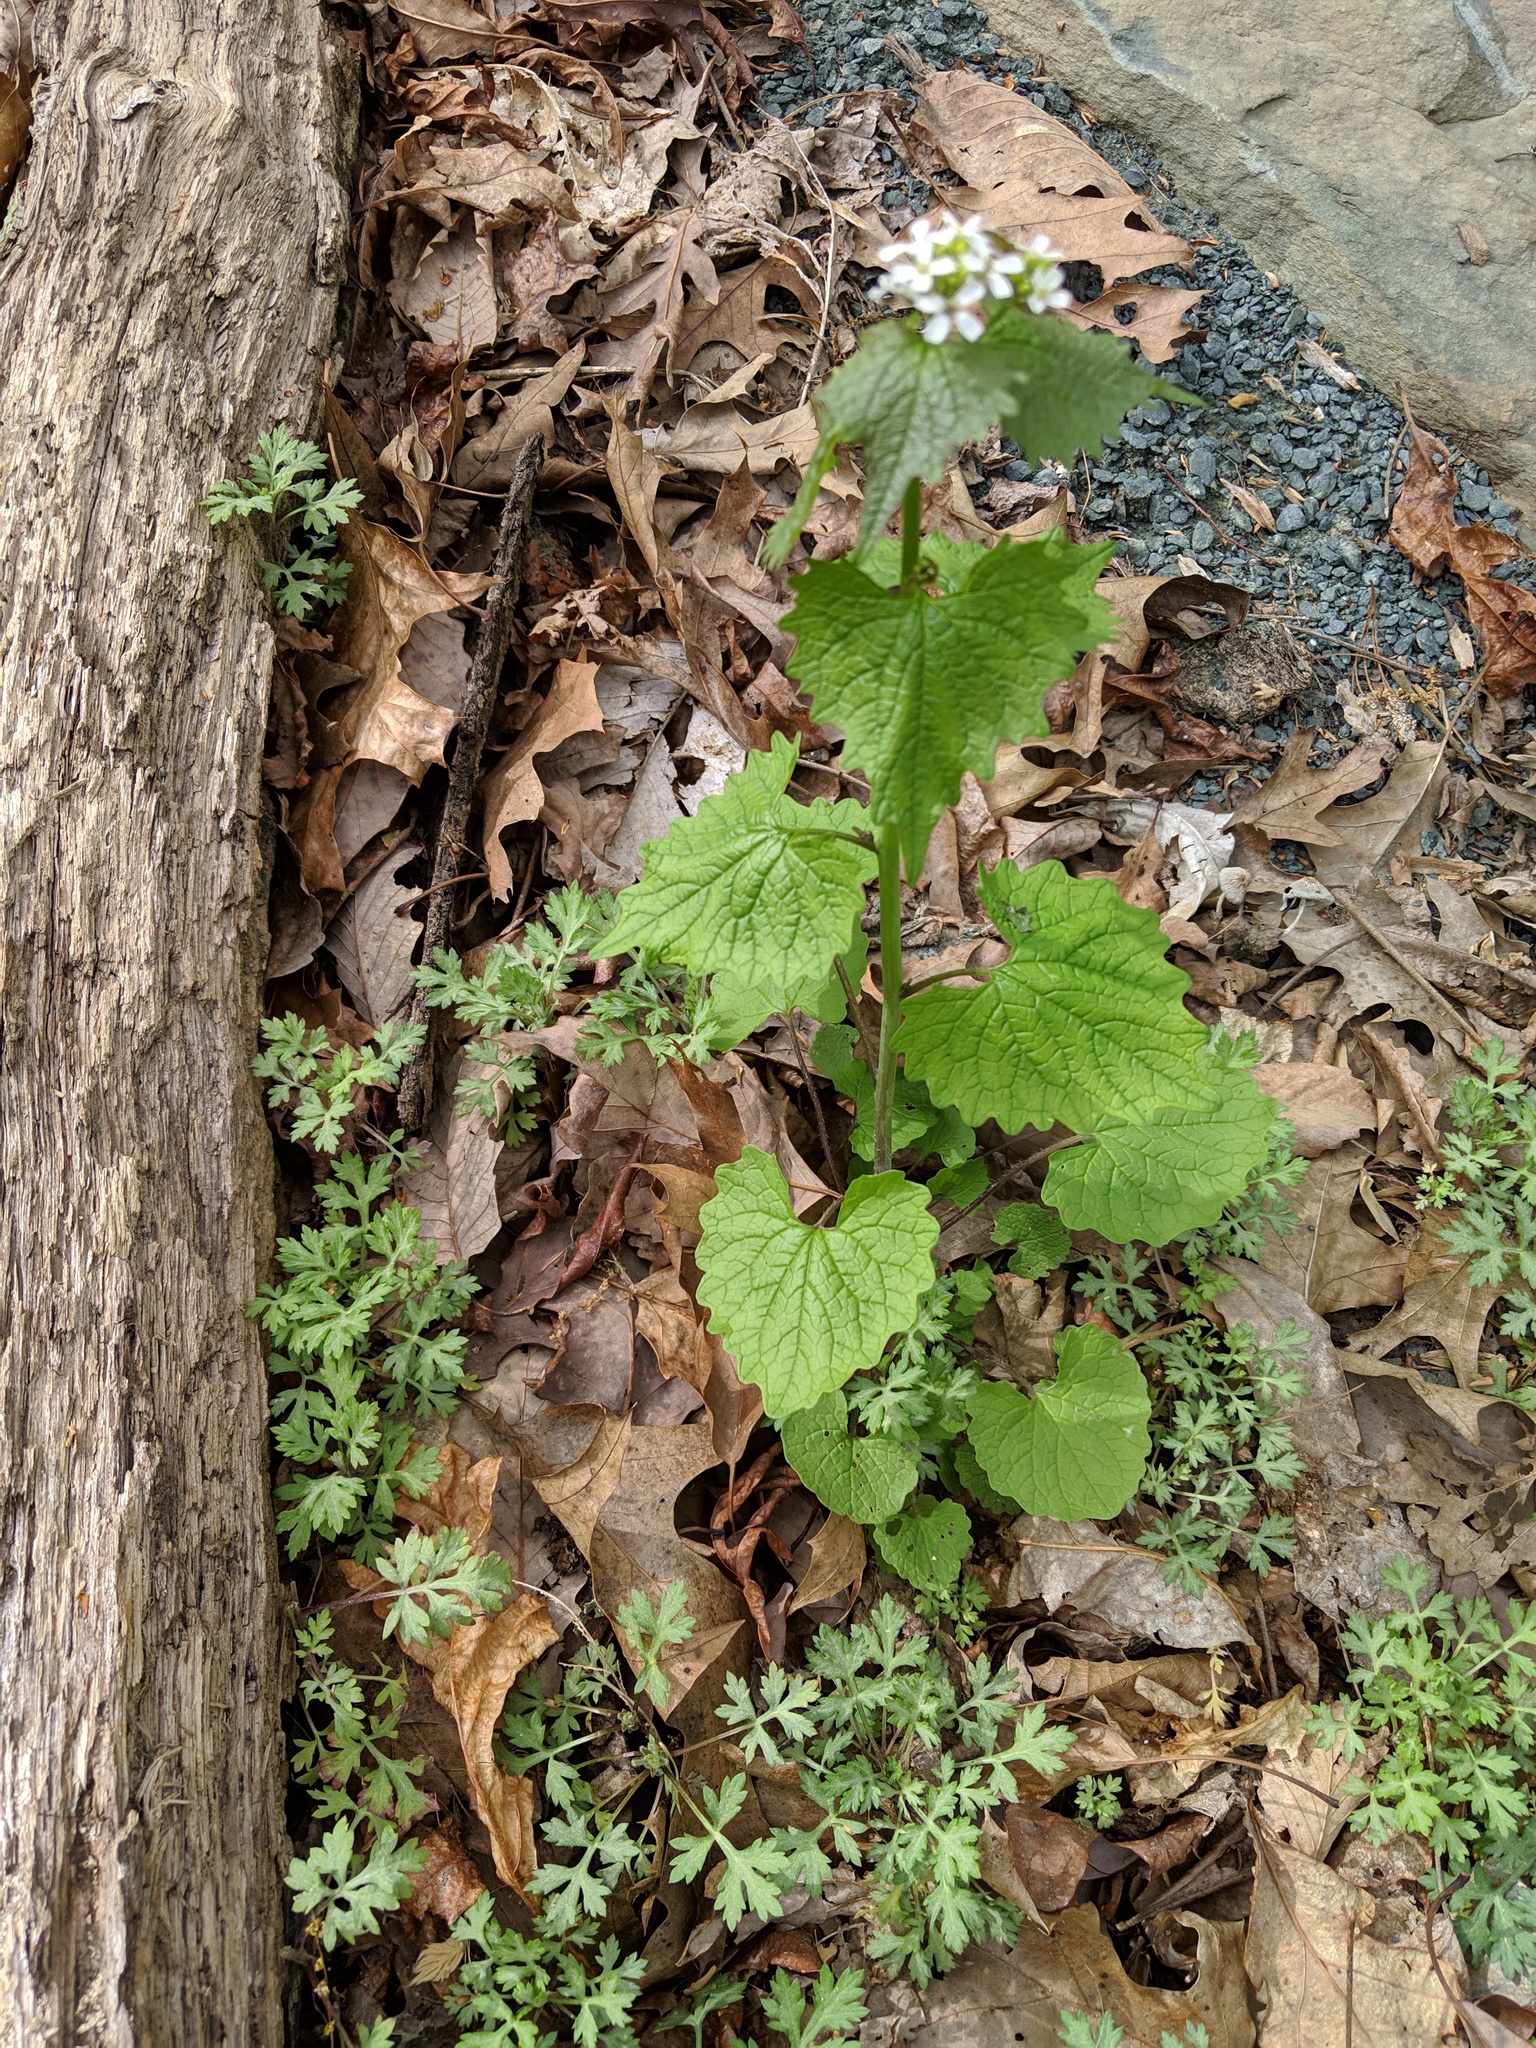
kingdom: Plantae
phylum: Tracheophyta
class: Magnoliopsida
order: Brassicales
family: Brassicaceae
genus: Alliaria
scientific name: Alliaria petiolata
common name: Garlic mustard
